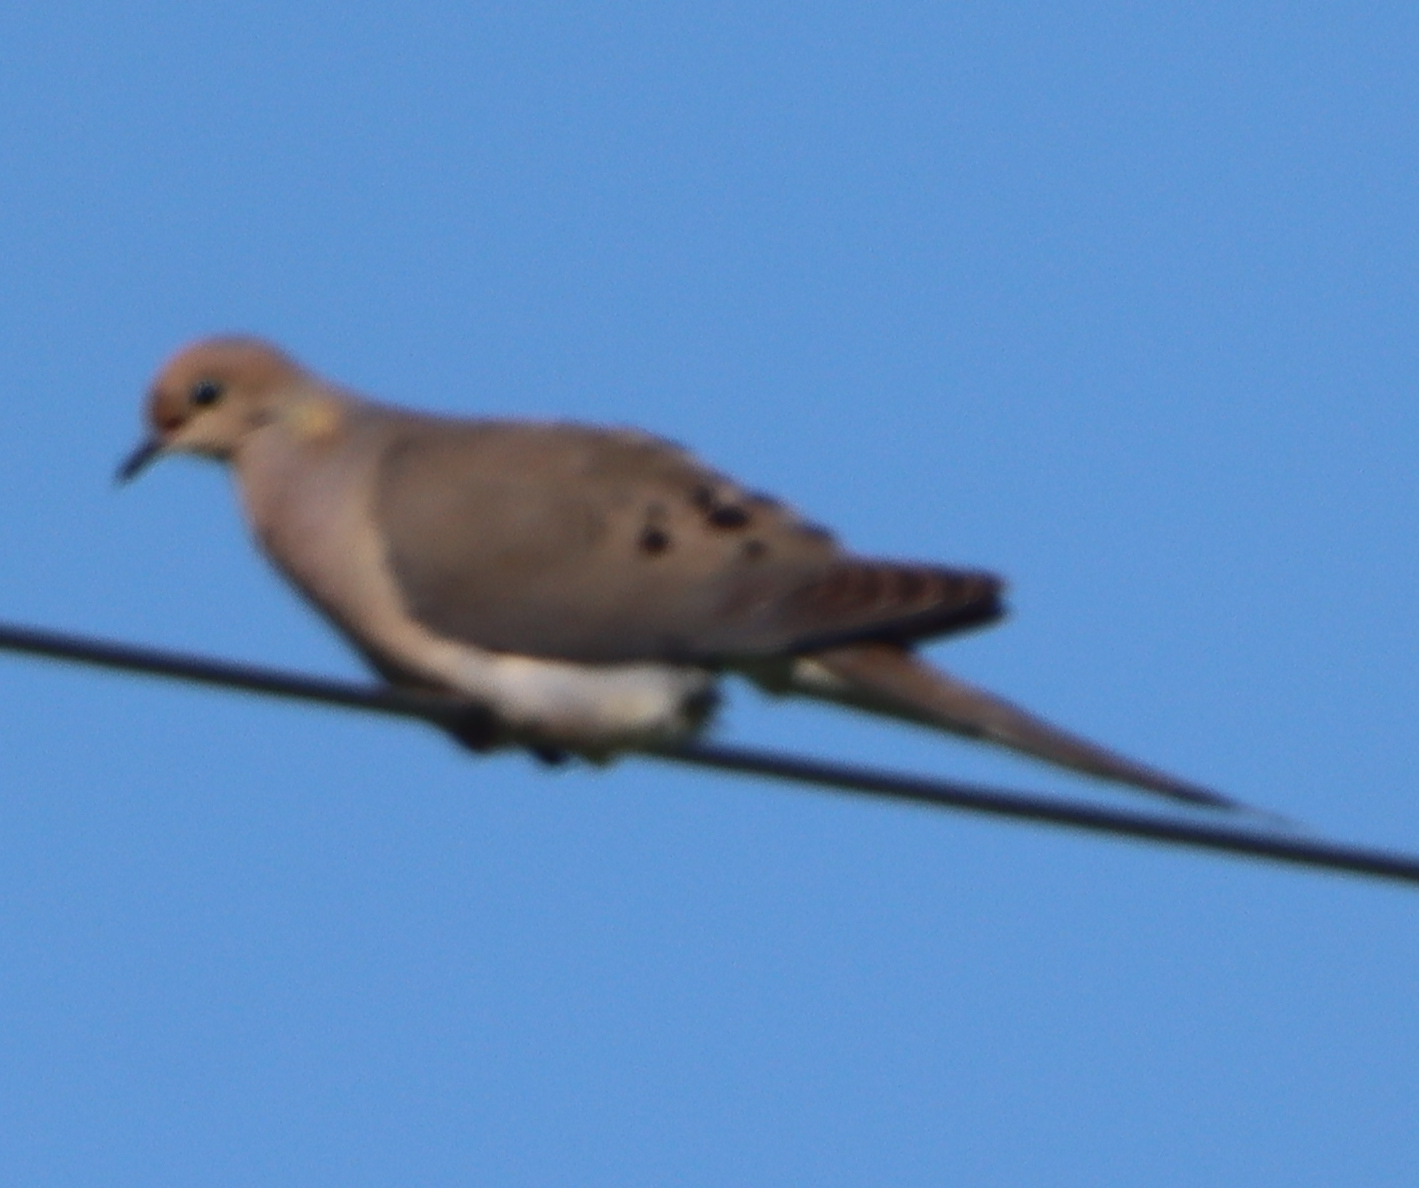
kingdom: Animalia
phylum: Chordata
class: Aves
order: Columbiformes
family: Columbidae
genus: Zenaida
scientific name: Zenaida macroura
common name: Mourning dove
